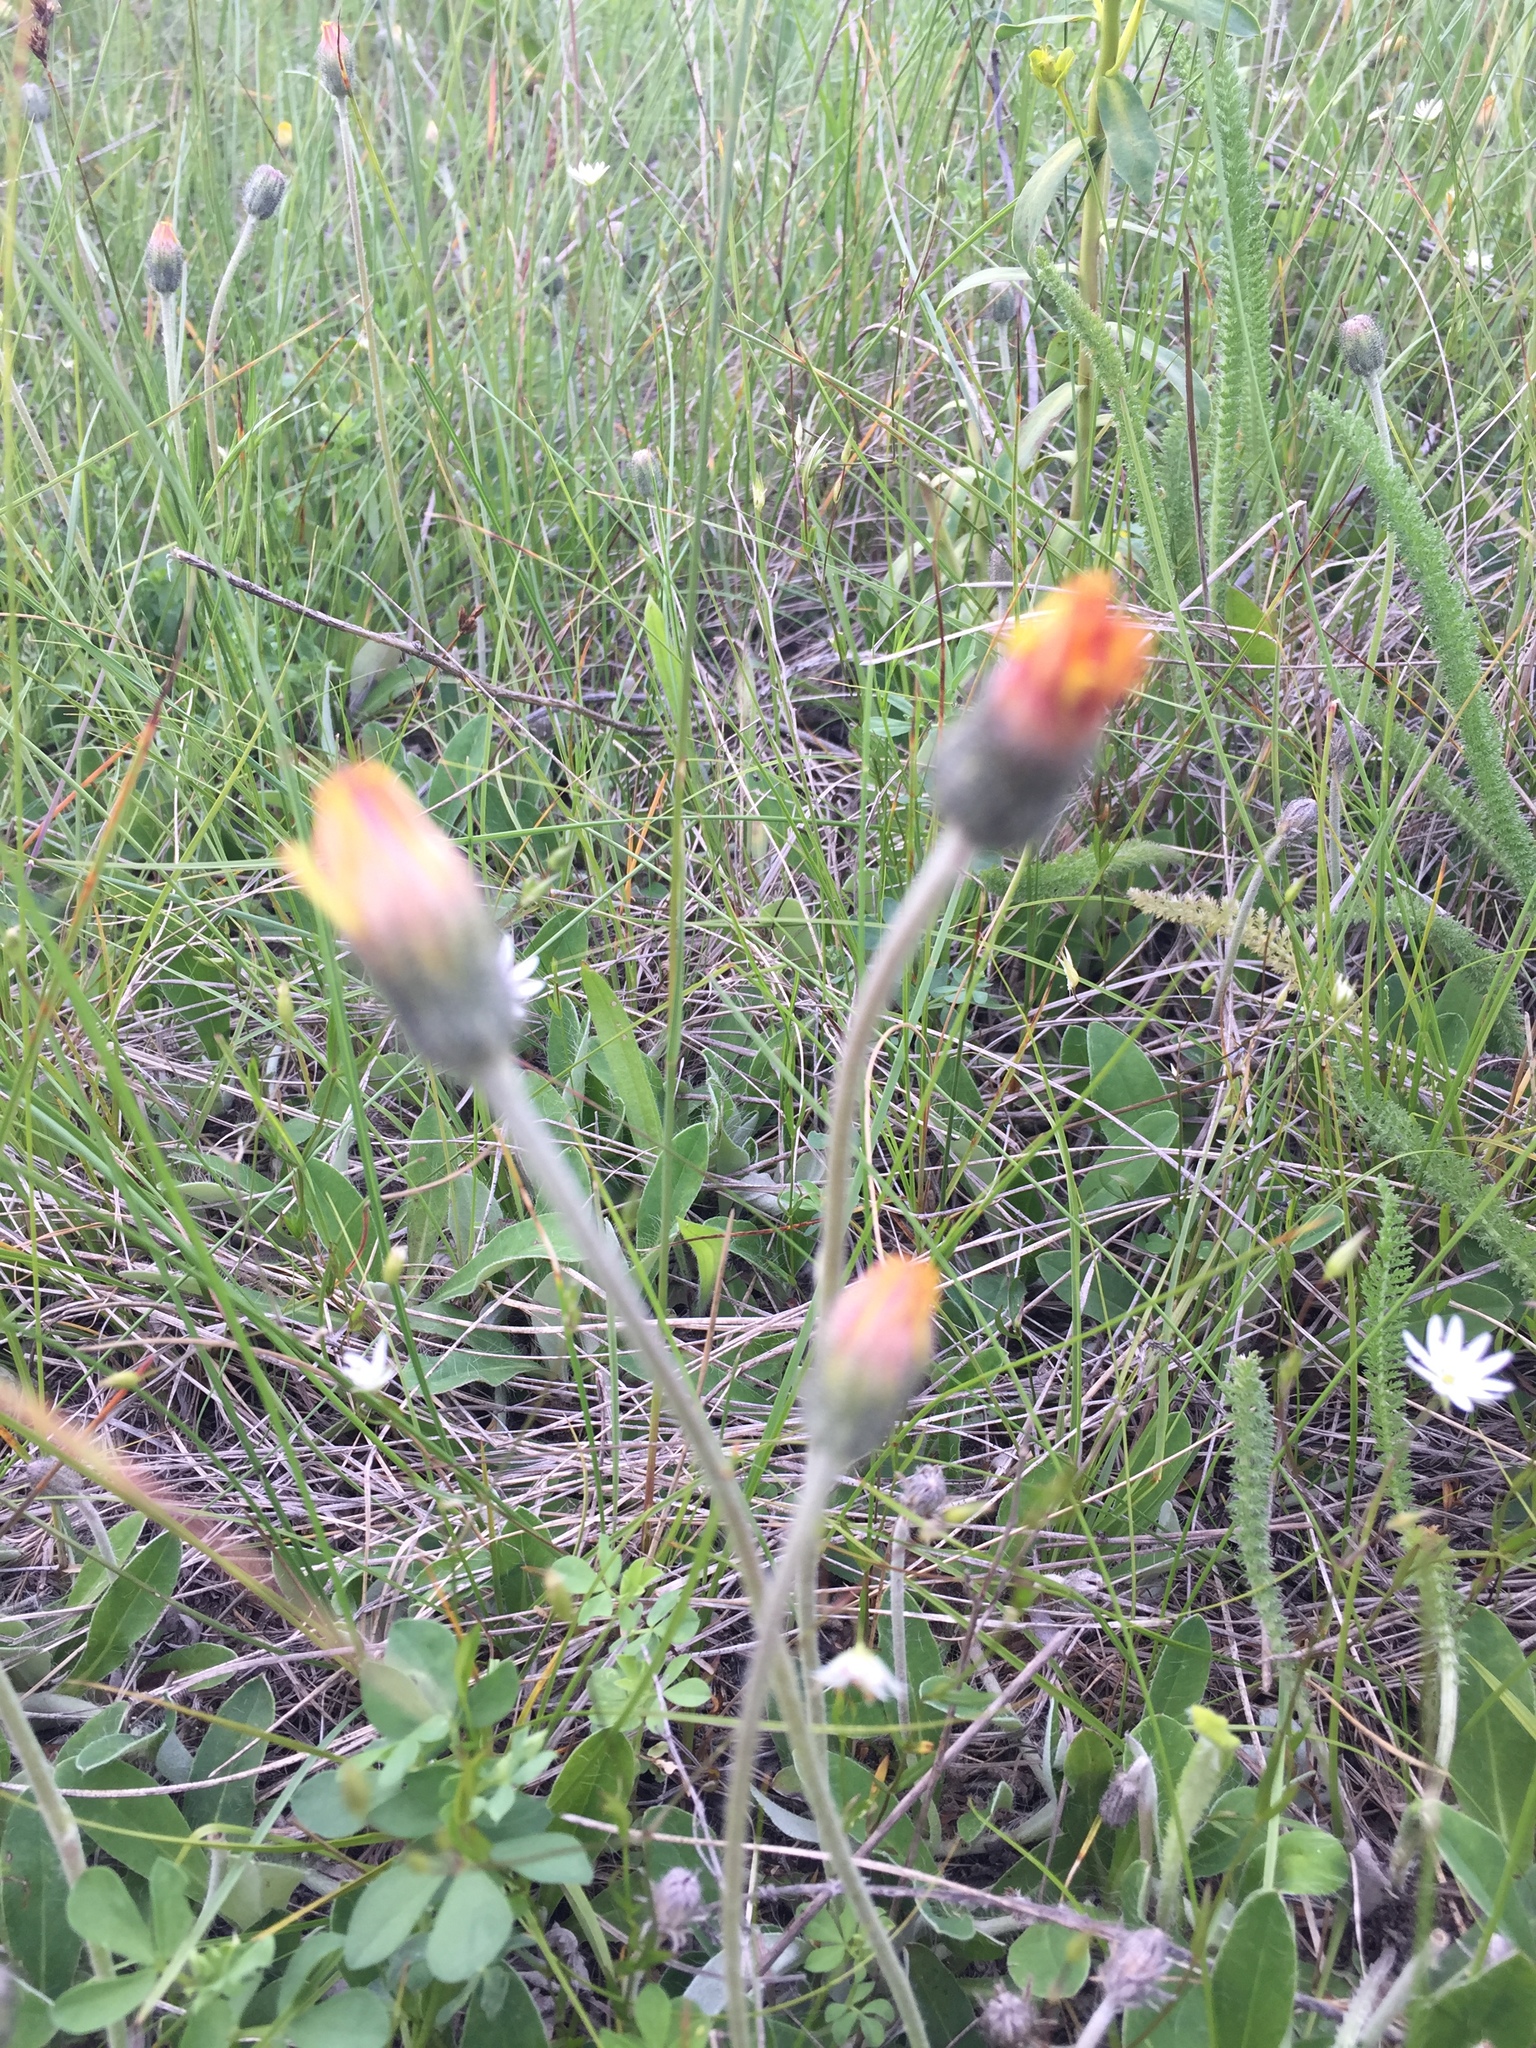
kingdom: Plantae
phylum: Tracheophyta
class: Magnoliopsida
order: Asterales
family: Asteraceae
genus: Pilosella
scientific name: Pilosella officinarum
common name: Mouse-ear hawkweed
